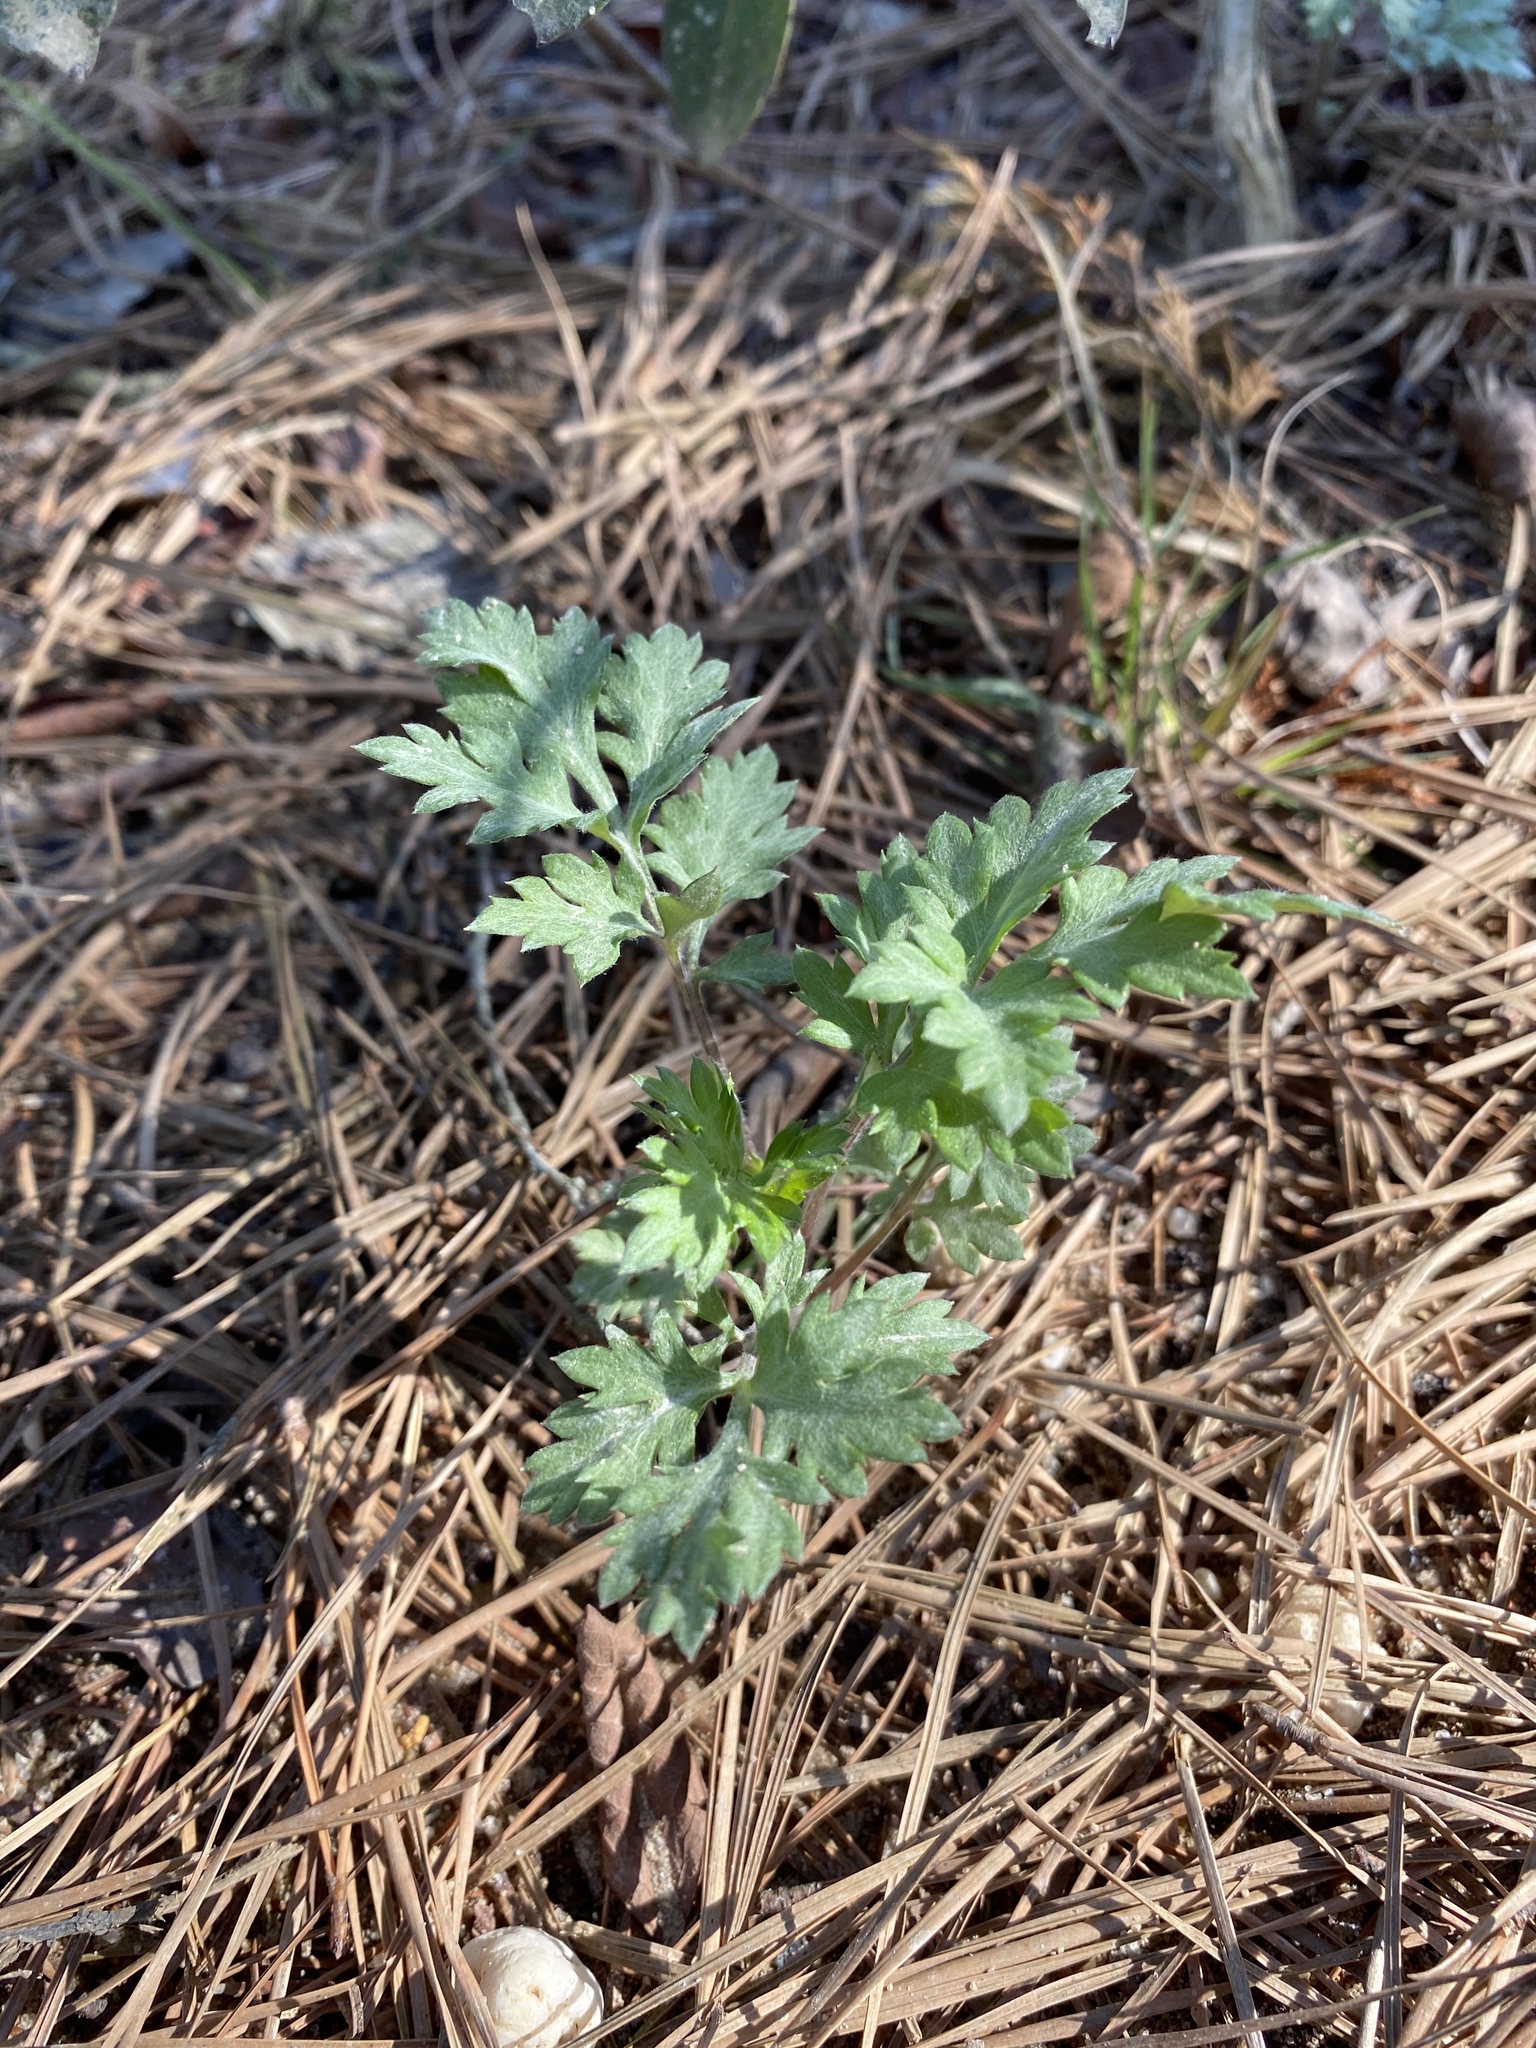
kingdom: Plantae
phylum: Tracheophyta
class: Magnoliopsida
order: Asterales
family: Asteraceae
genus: Artemisia
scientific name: Artemisia vulgaris
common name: Mugwort
